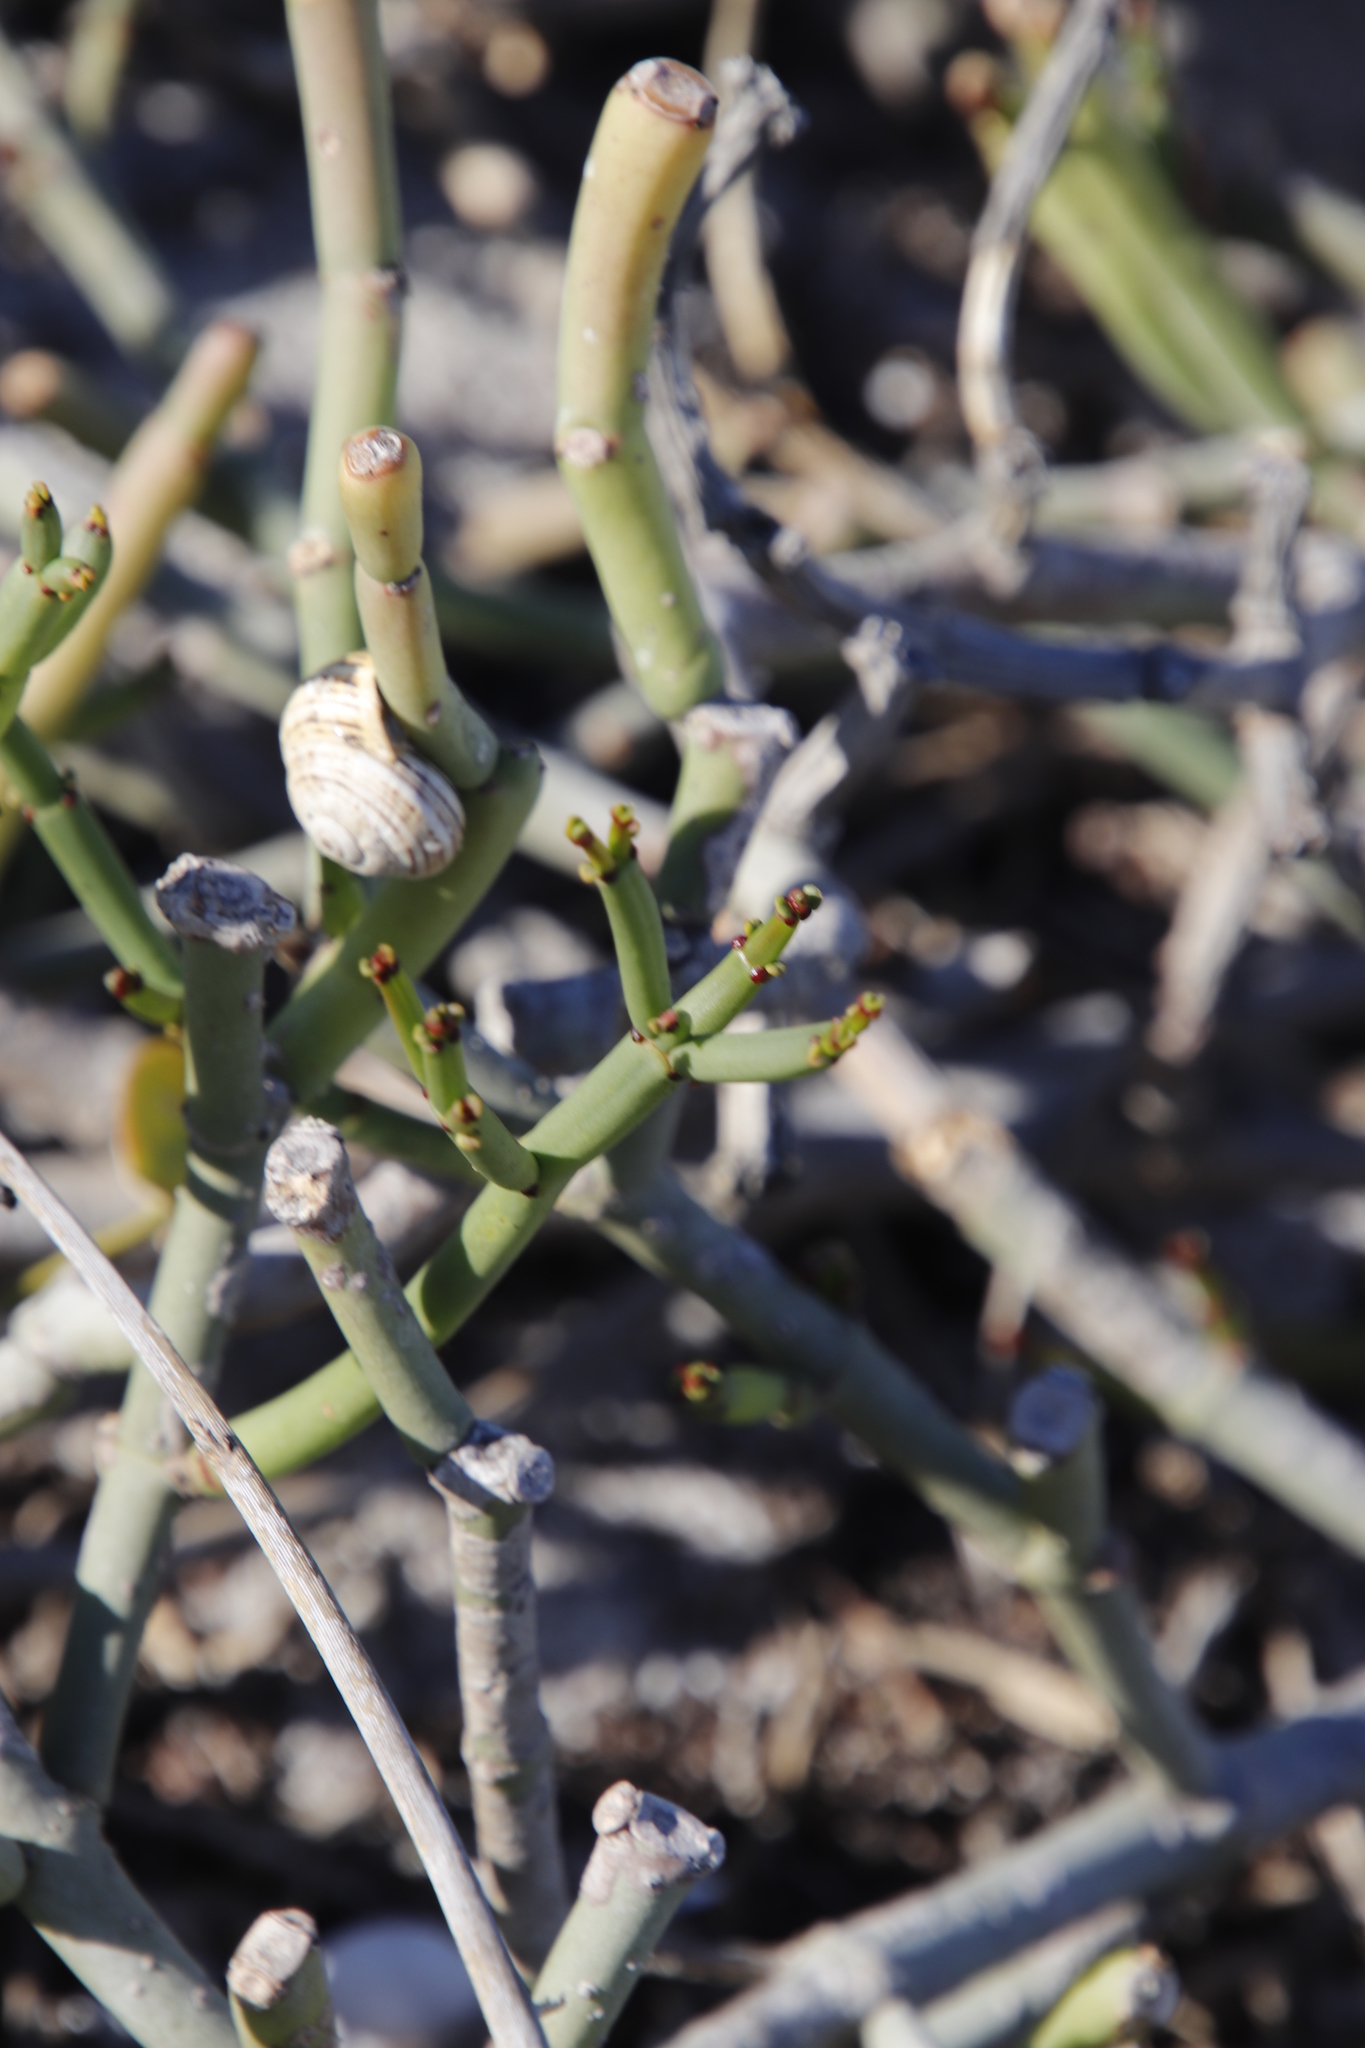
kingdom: Plantae
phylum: Tracheophyta
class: Magnoliopsida
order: Malpighiales
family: Euphorbiaceae
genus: Euphorbia
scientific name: Euphorbia burmanni
